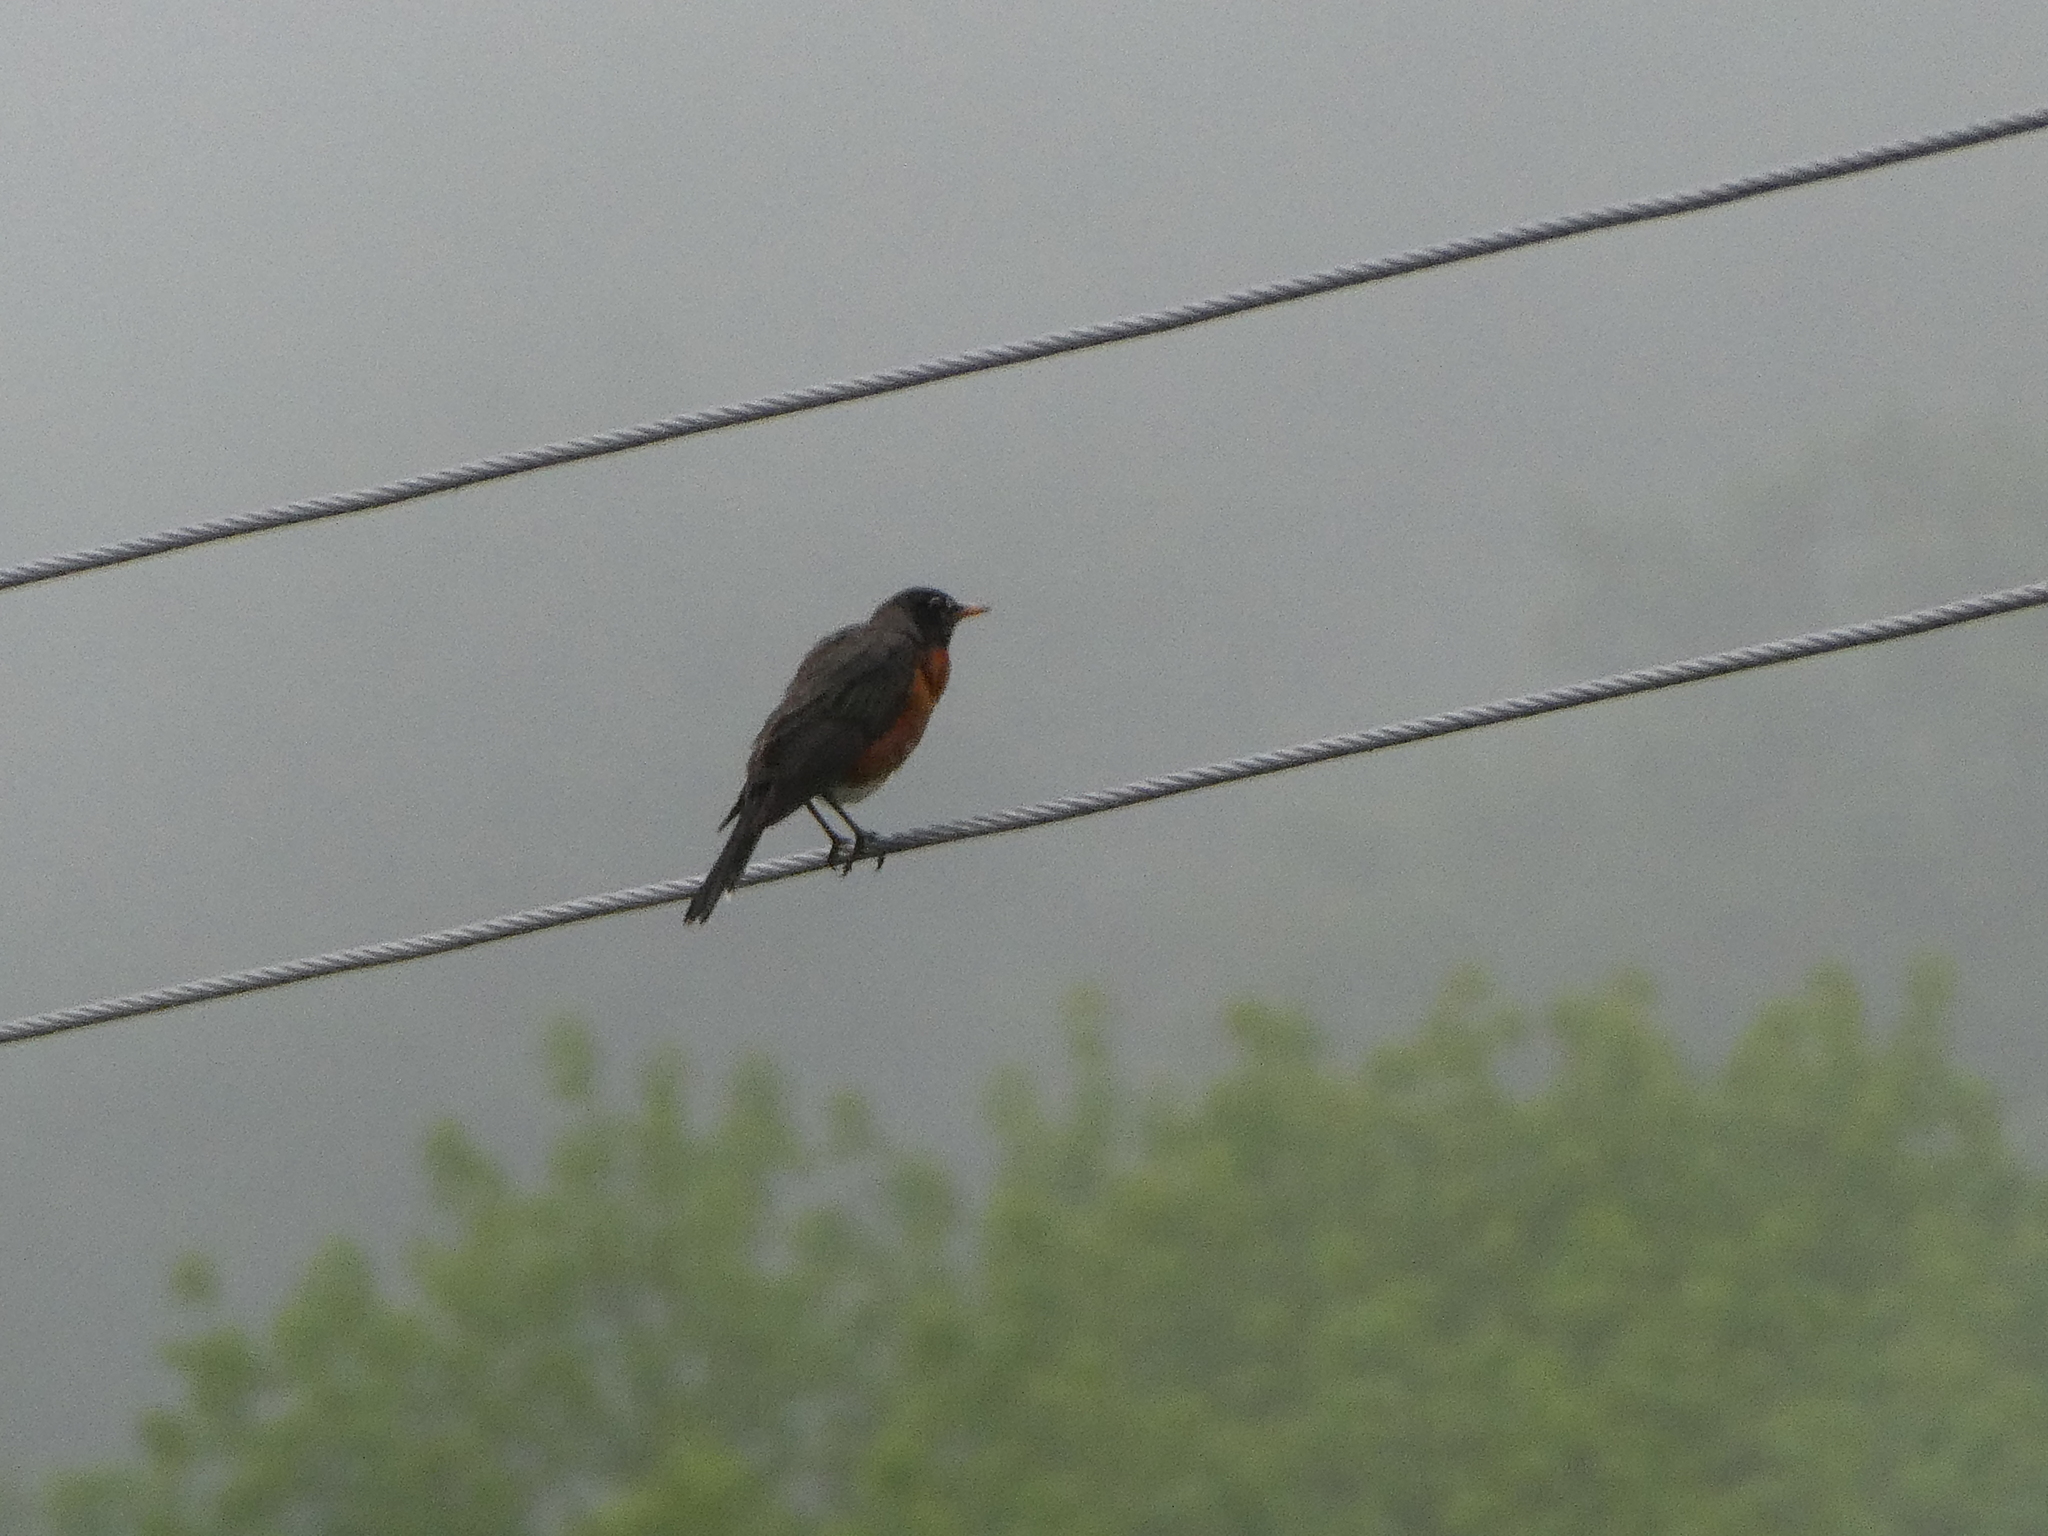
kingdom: Animalia
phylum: Chordata
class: Aves
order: Passeriformes
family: Turdidae
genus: Turdus
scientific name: Turdus migratorius
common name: American robin
